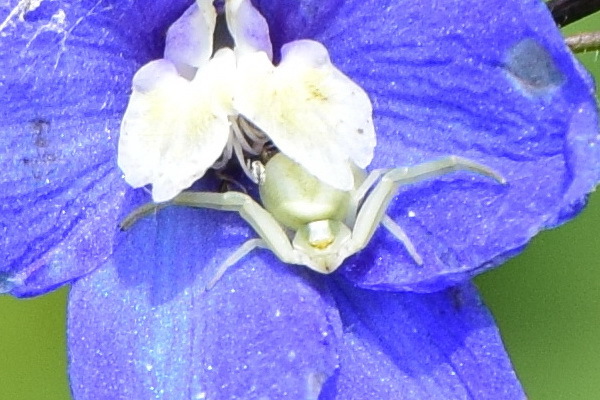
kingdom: Animalia
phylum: Arthropoda
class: Arachnida
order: Araneae
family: Thomisidae
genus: Misumena
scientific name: Misumena vatia
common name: Goldenrod crab spider
